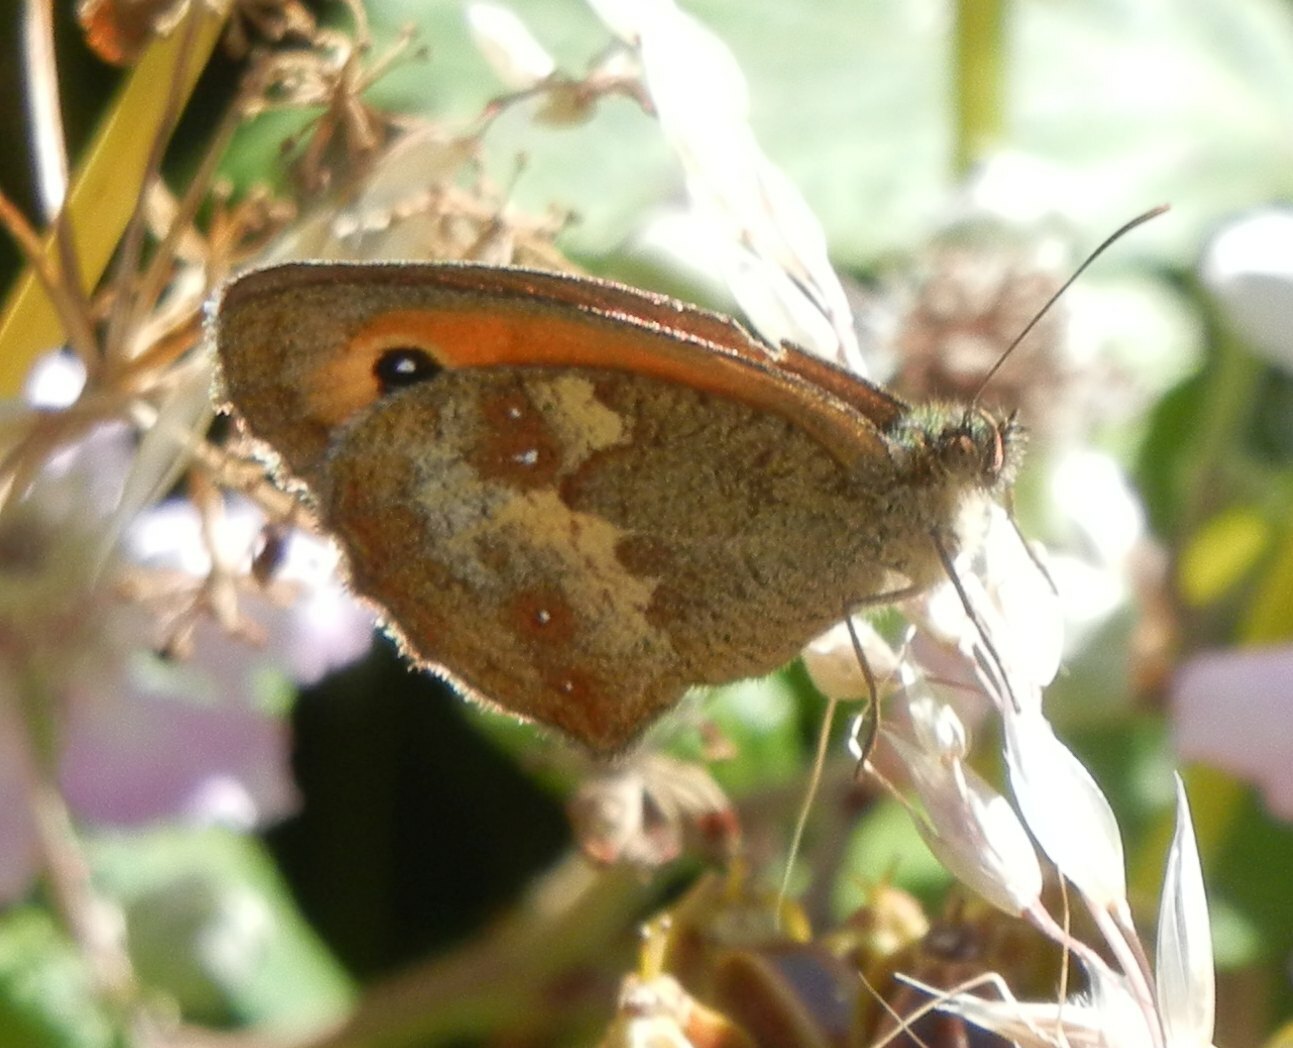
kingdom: Animalia
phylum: Arthropoda
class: Insecta
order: Lepidoptera
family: Nymphalidae
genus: Pyronia
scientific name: Pyronia tithonus
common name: Gatekeeper
